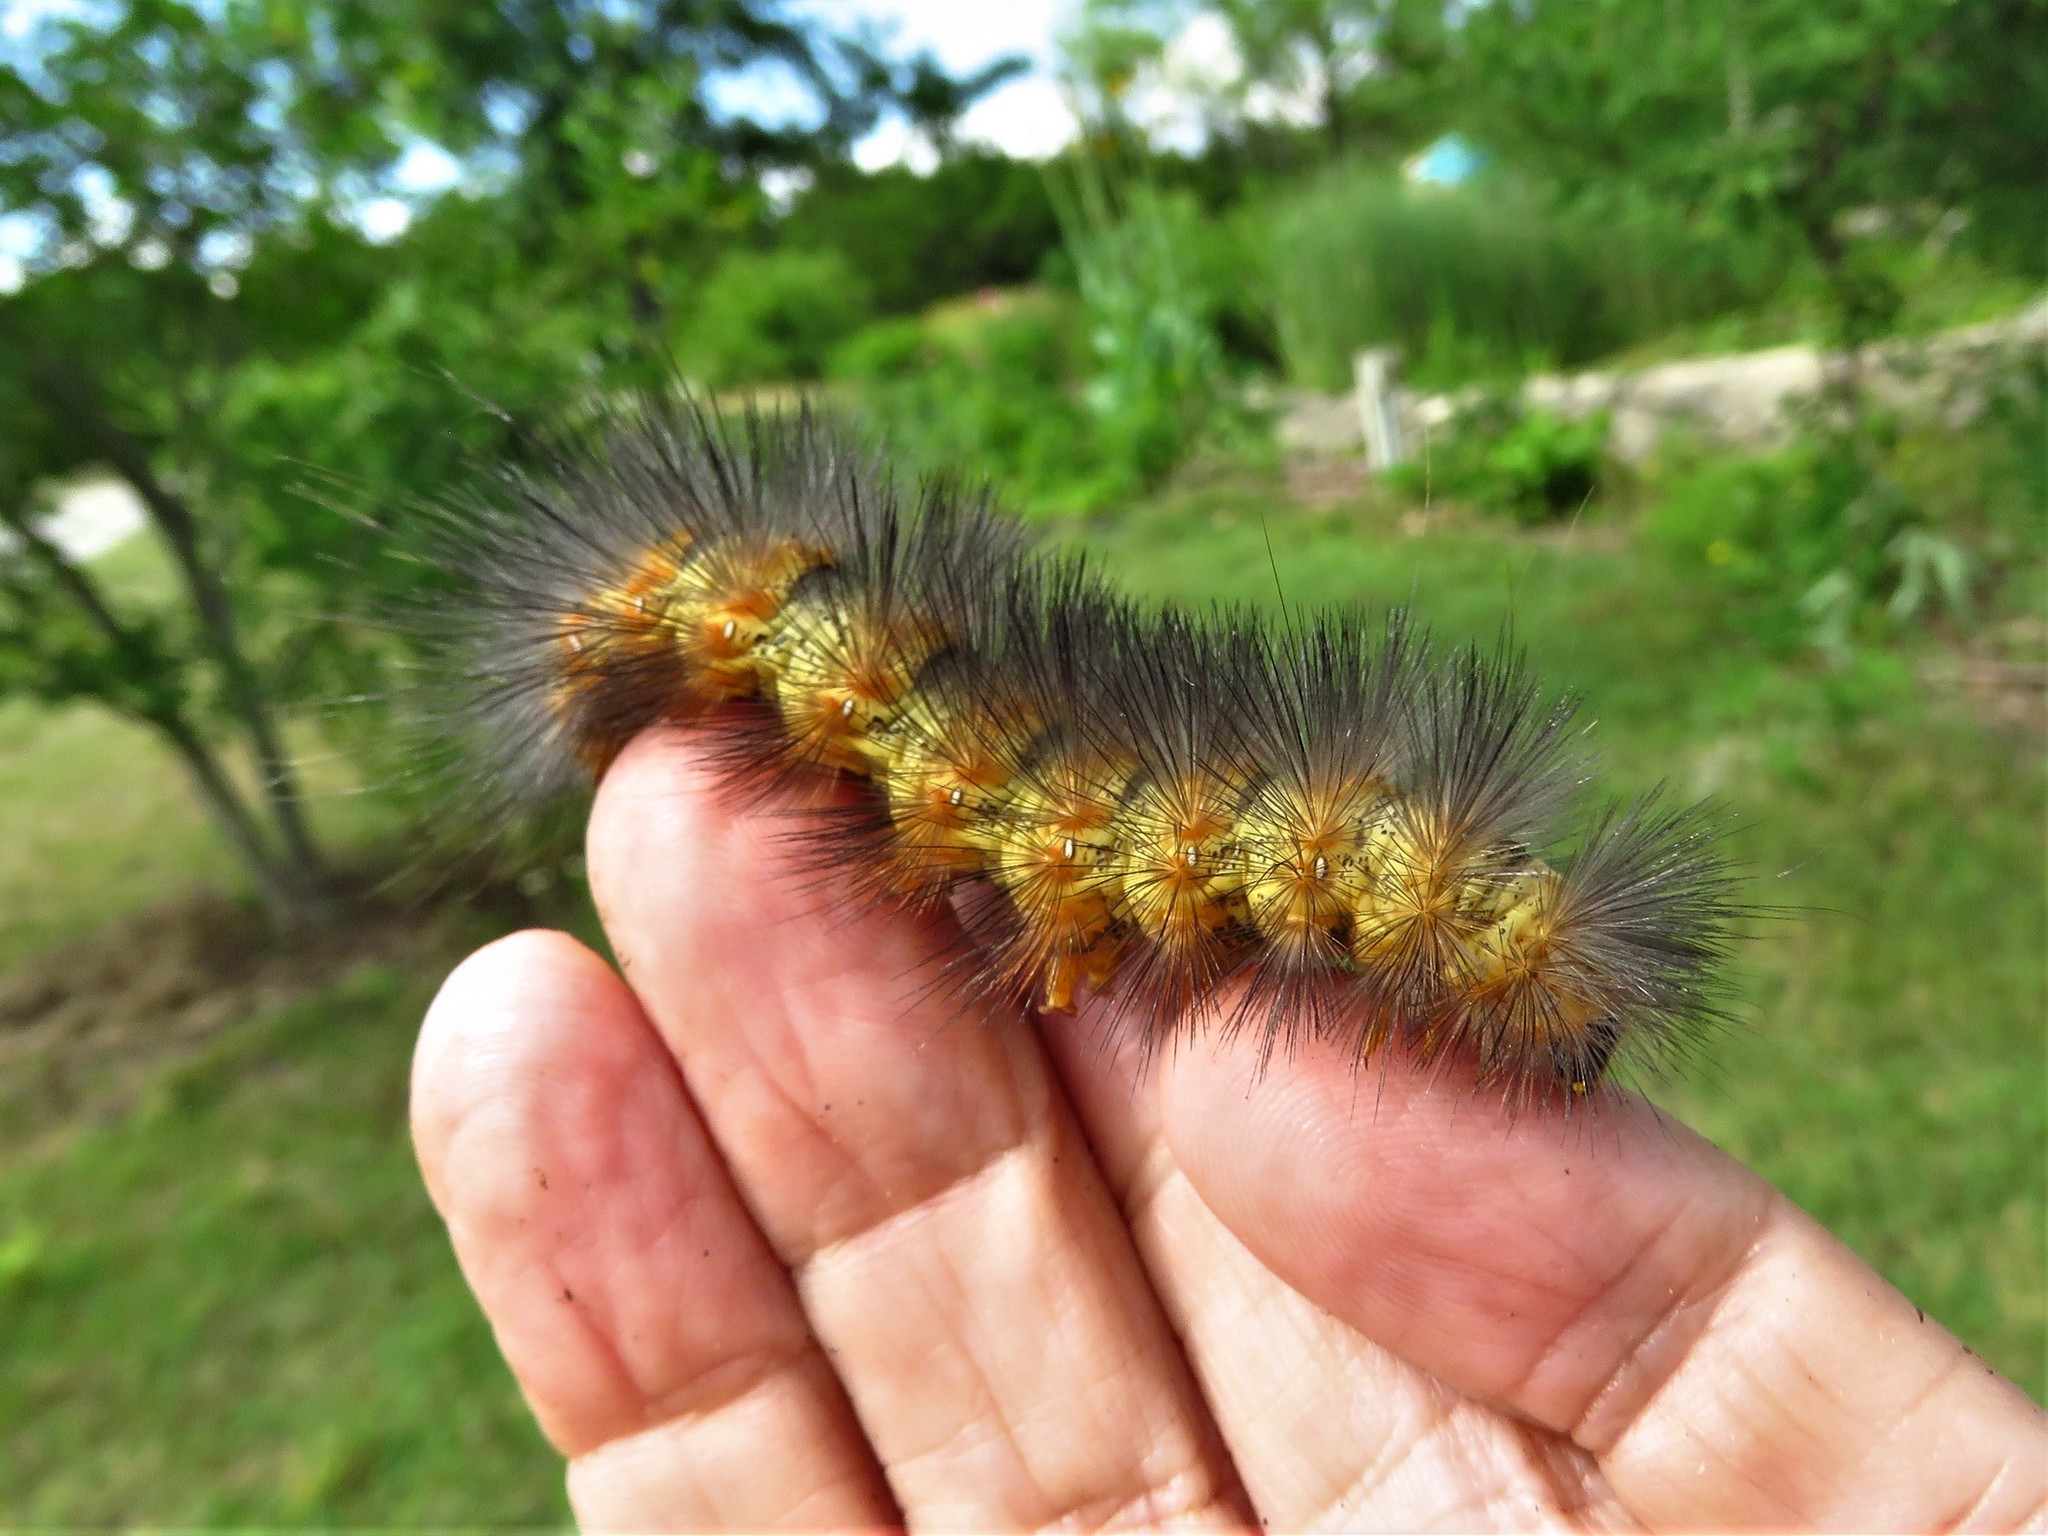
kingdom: Animalia
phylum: Arthropoda
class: Insecta
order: Lepidoptera
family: Erebidae
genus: Estigmene
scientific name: Estigmene acrea
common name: Salt marsh moth
